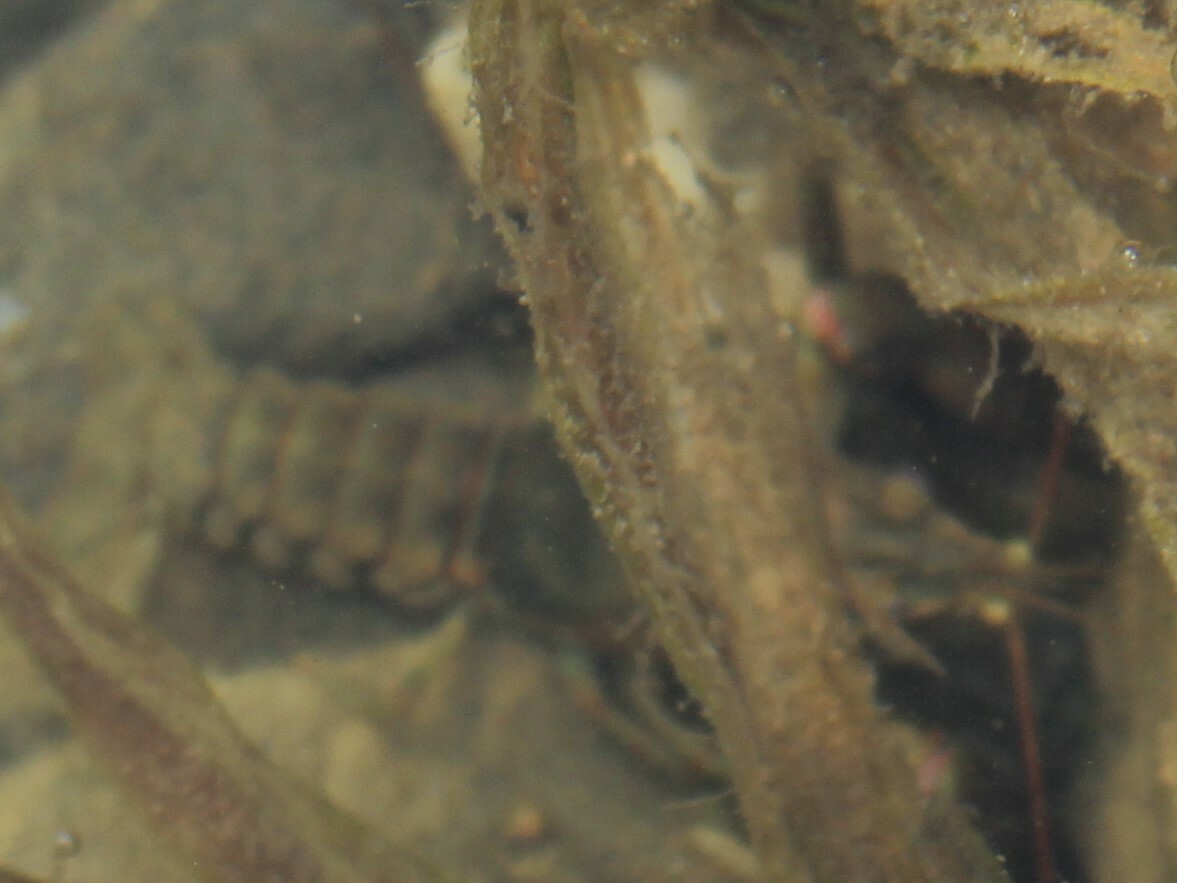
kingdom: Animalia
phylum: Arthropoda
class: Malacostraca
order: Decapoda
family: Cambaridae
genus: Faxonius
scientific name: Faxonius rusticus
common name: Rusty crayfish
